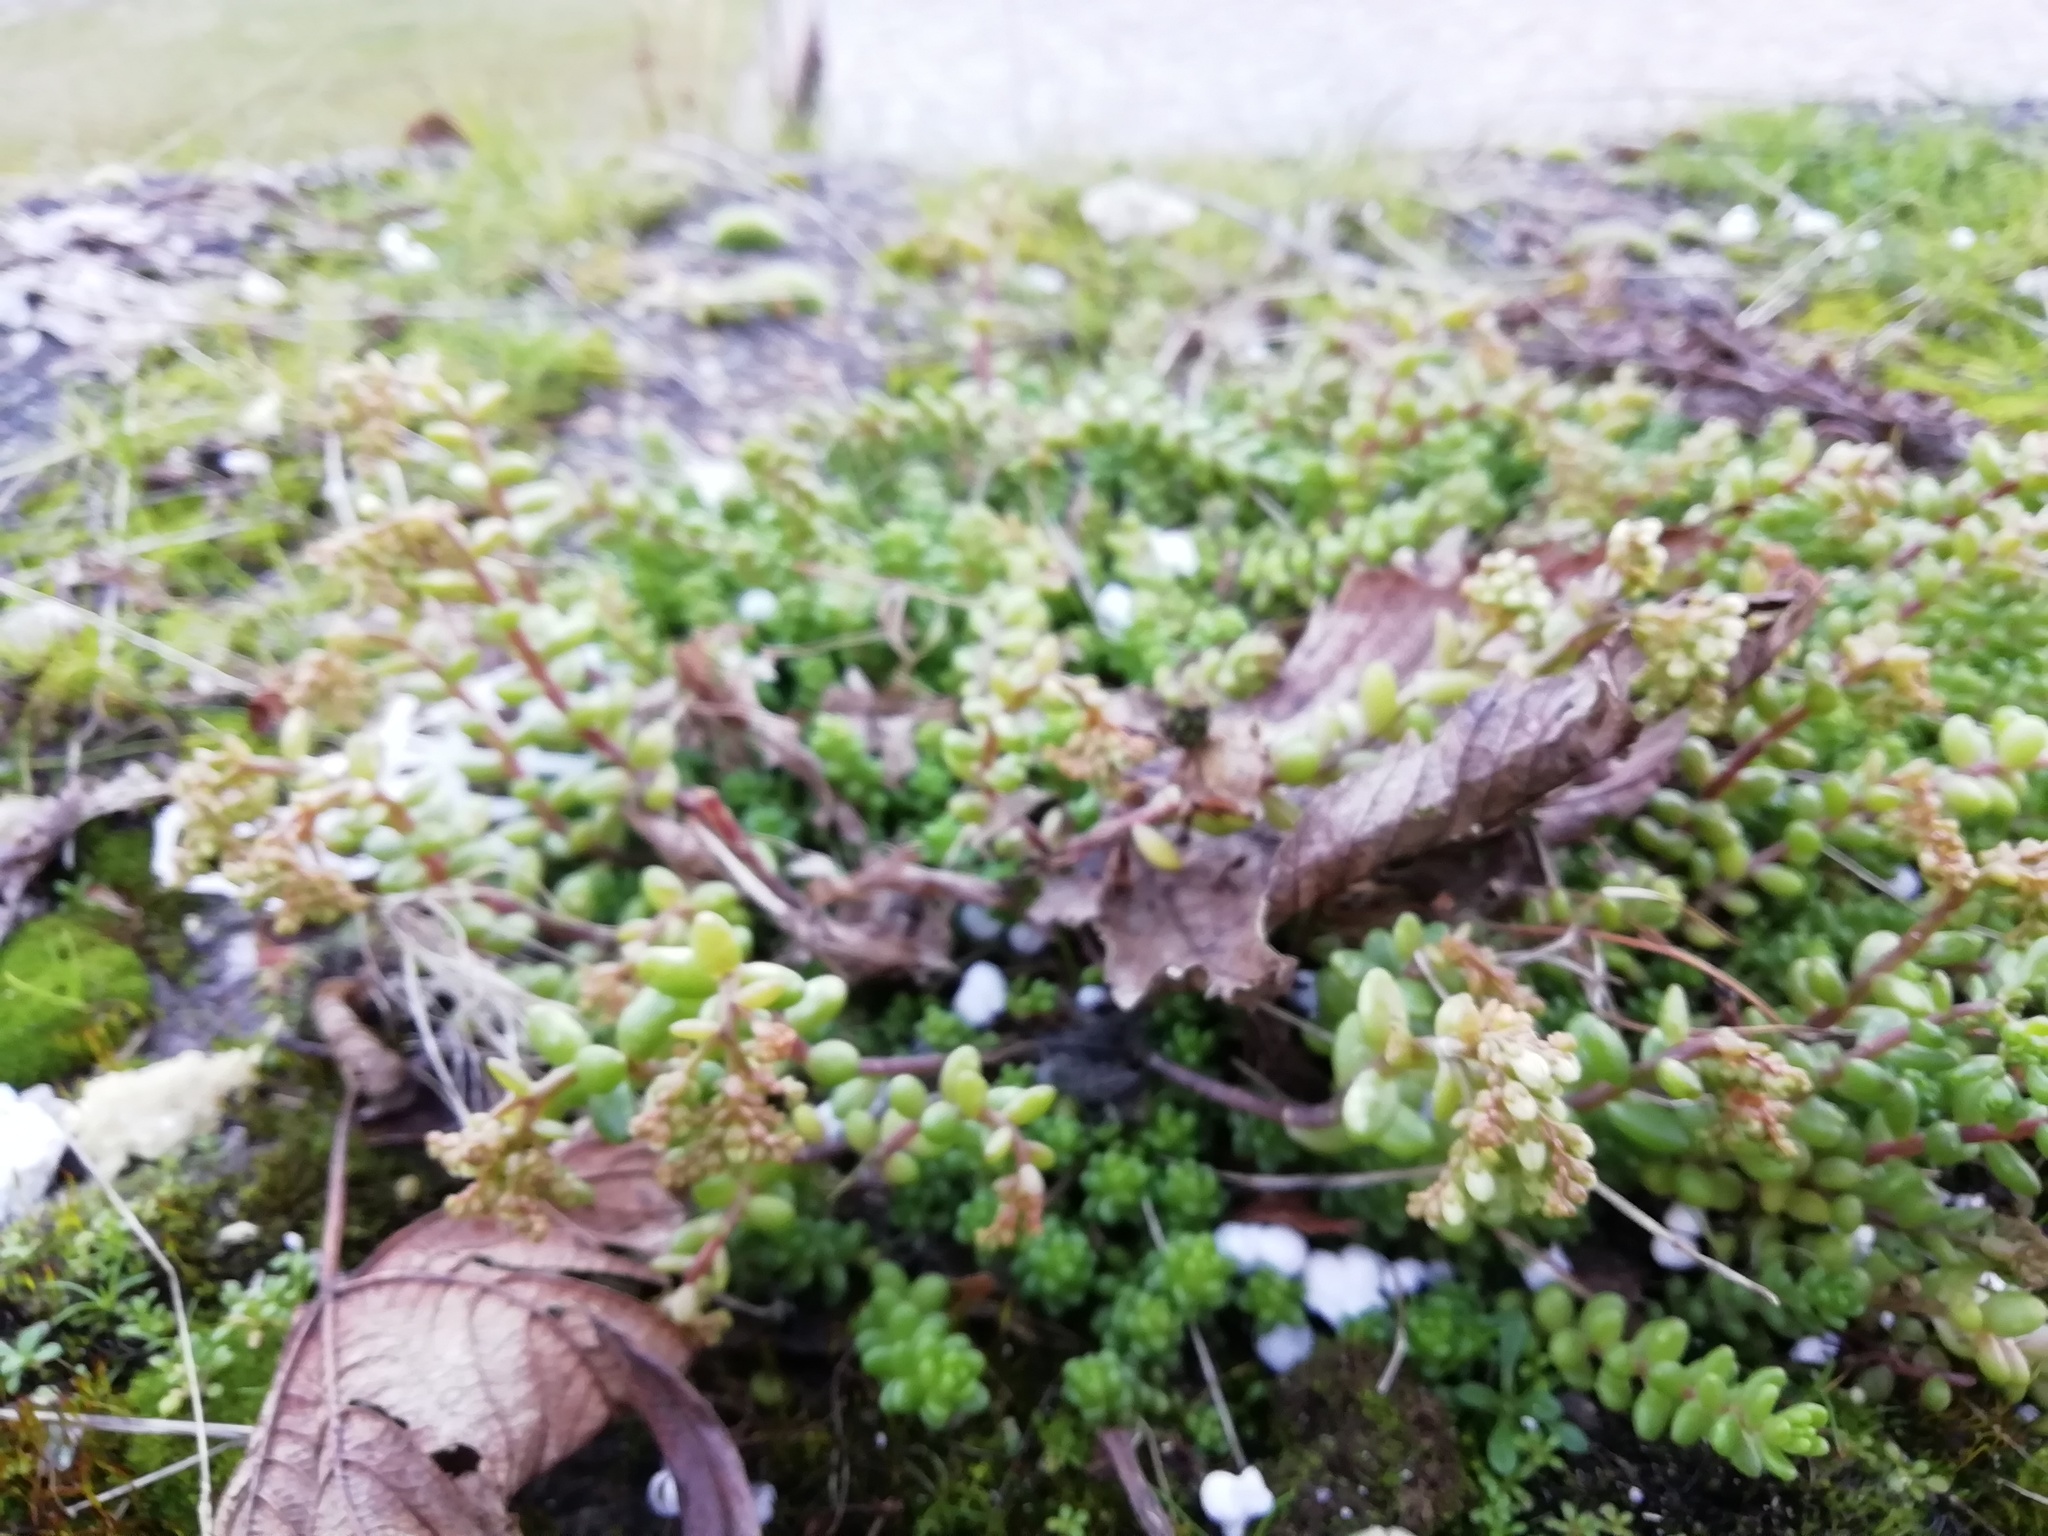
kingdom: Plantae
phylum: Tracheophyta
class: Magnoliopsida
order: Saxifragales
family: Crassulaceae
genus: Sedum
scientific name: Sedum album
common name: White stonecrop
